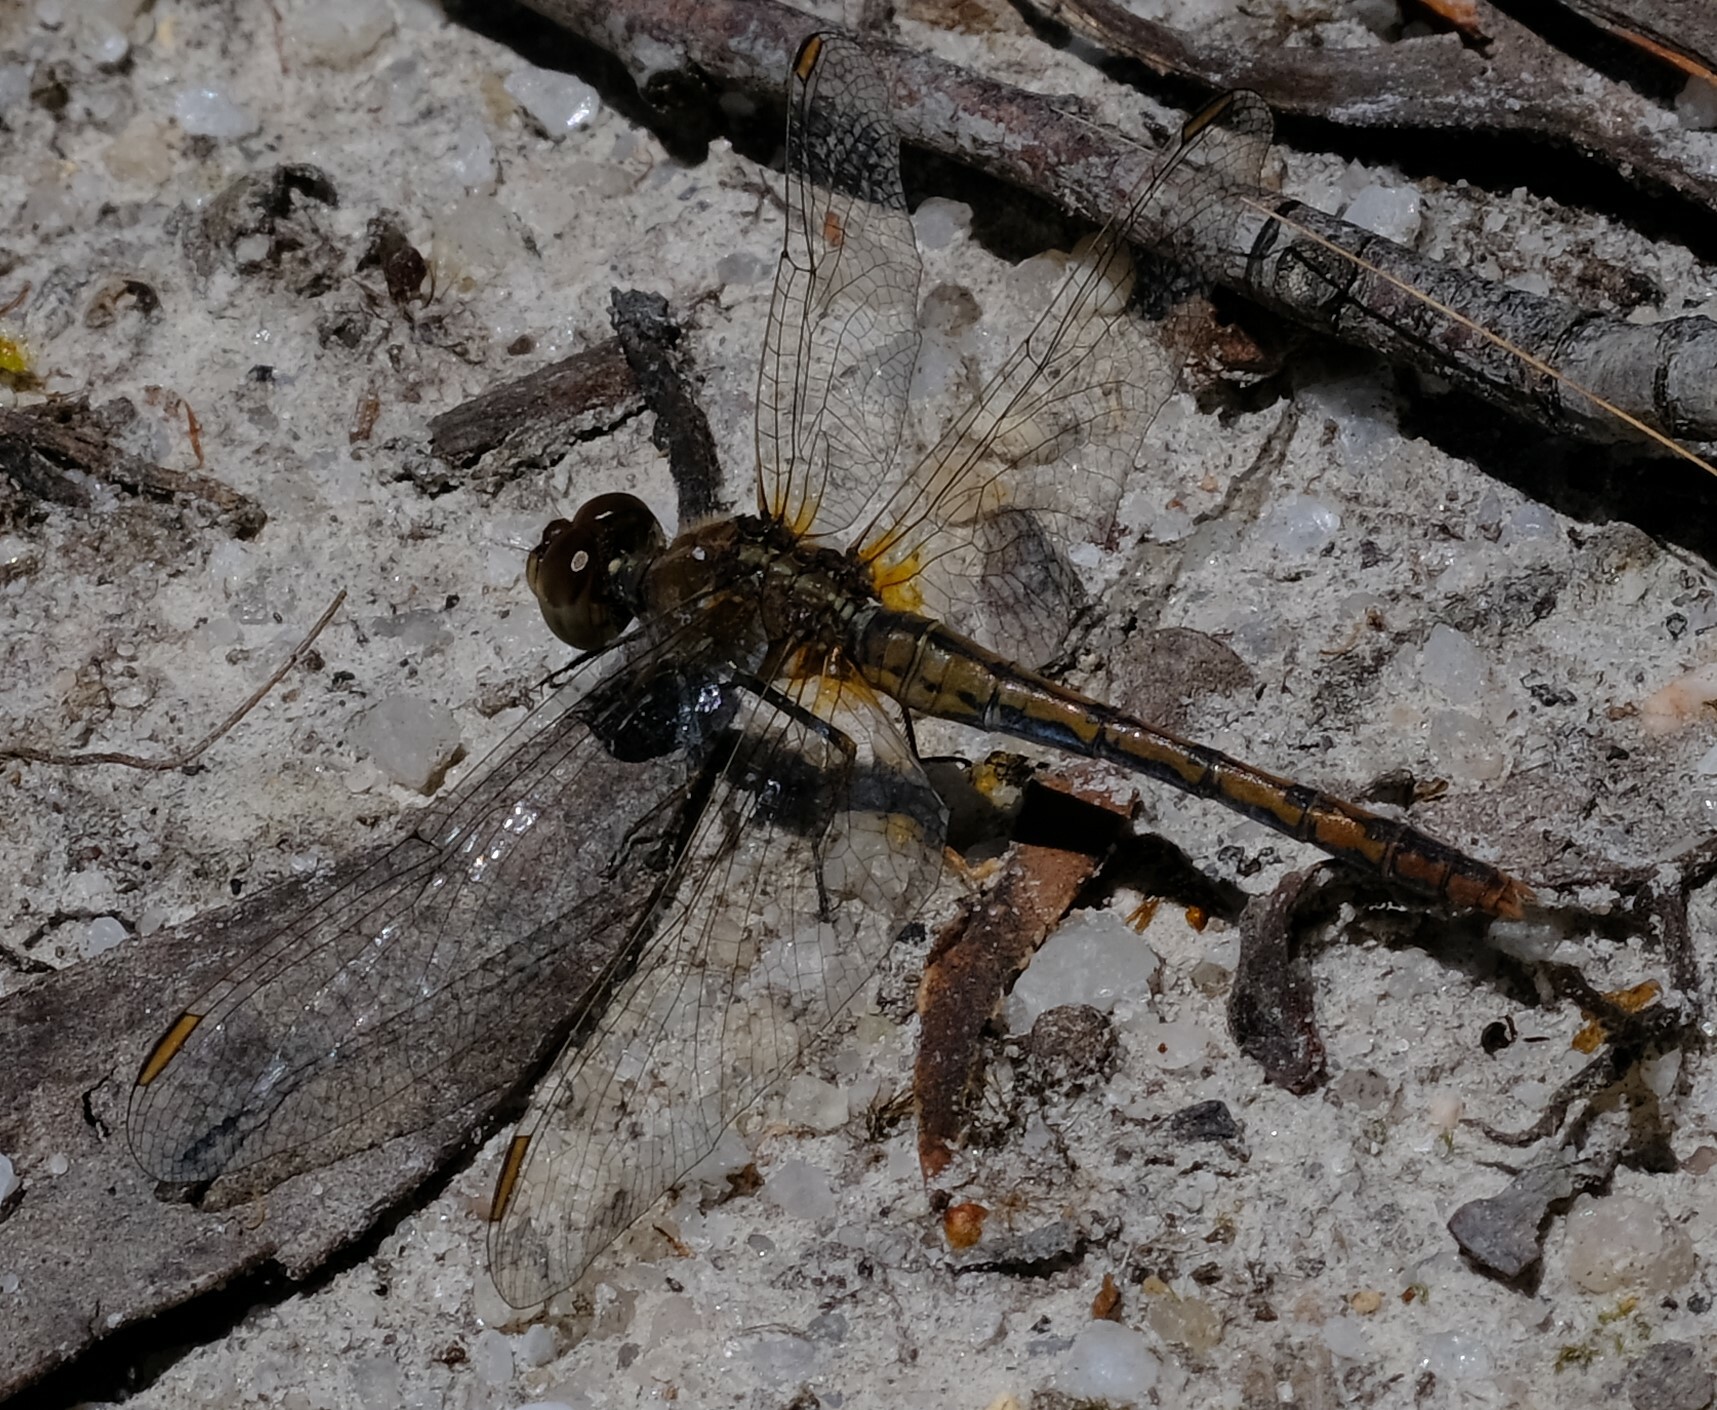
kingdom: Animalia
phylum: Arthropoda
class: Insecta
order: Odonata
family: Libellulidae
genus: Diplacodes
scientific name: Diplacodes bipunctata
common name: Red percher dragonfly
